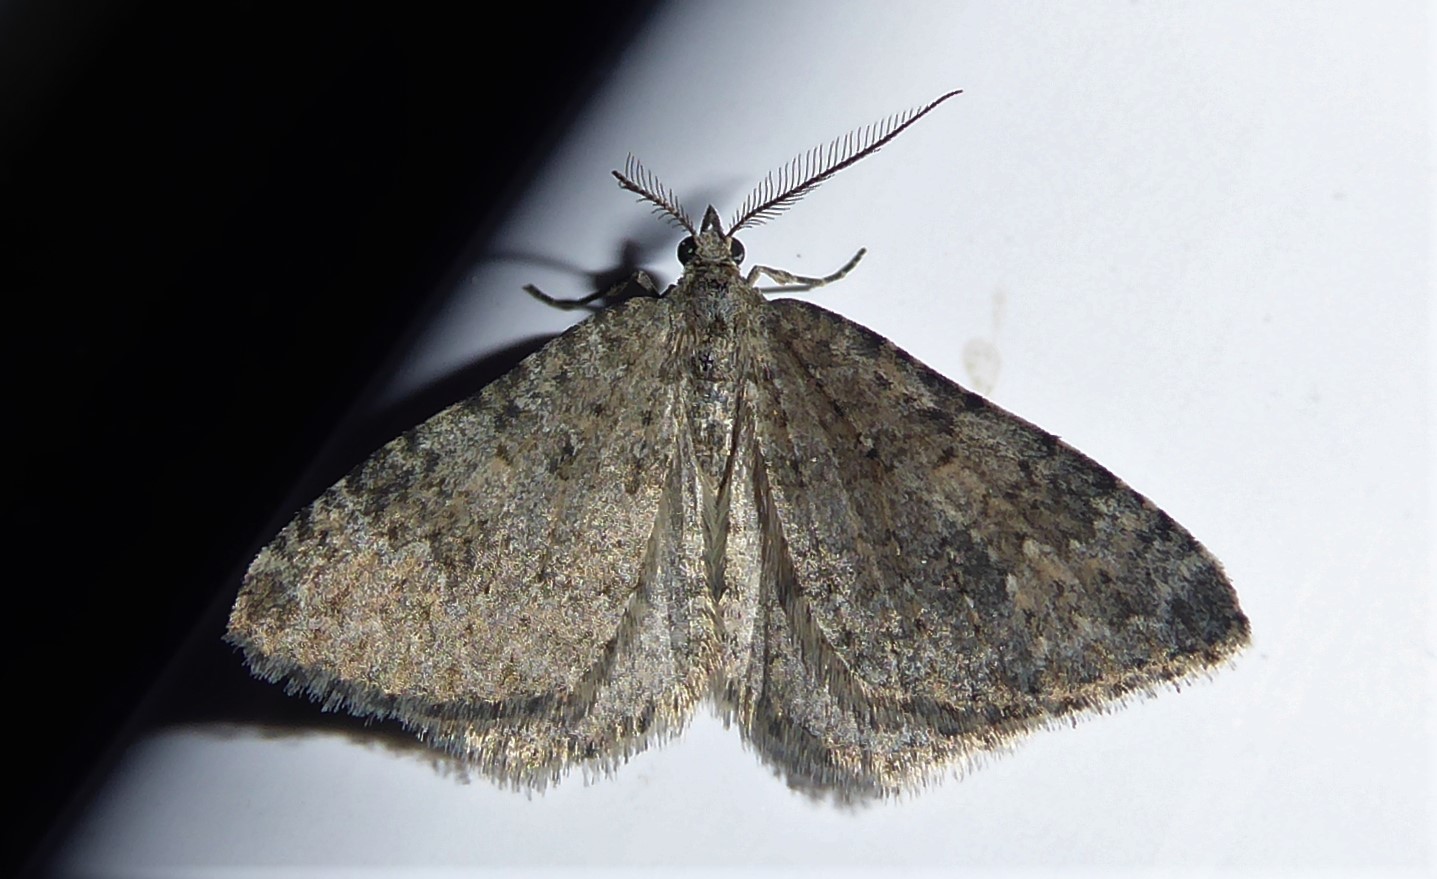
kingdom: Animalia
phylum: Arthropoda
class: Insecta
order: Lepidoptera
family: Geometridae
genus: Helastia
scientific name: Helastia corcularia
